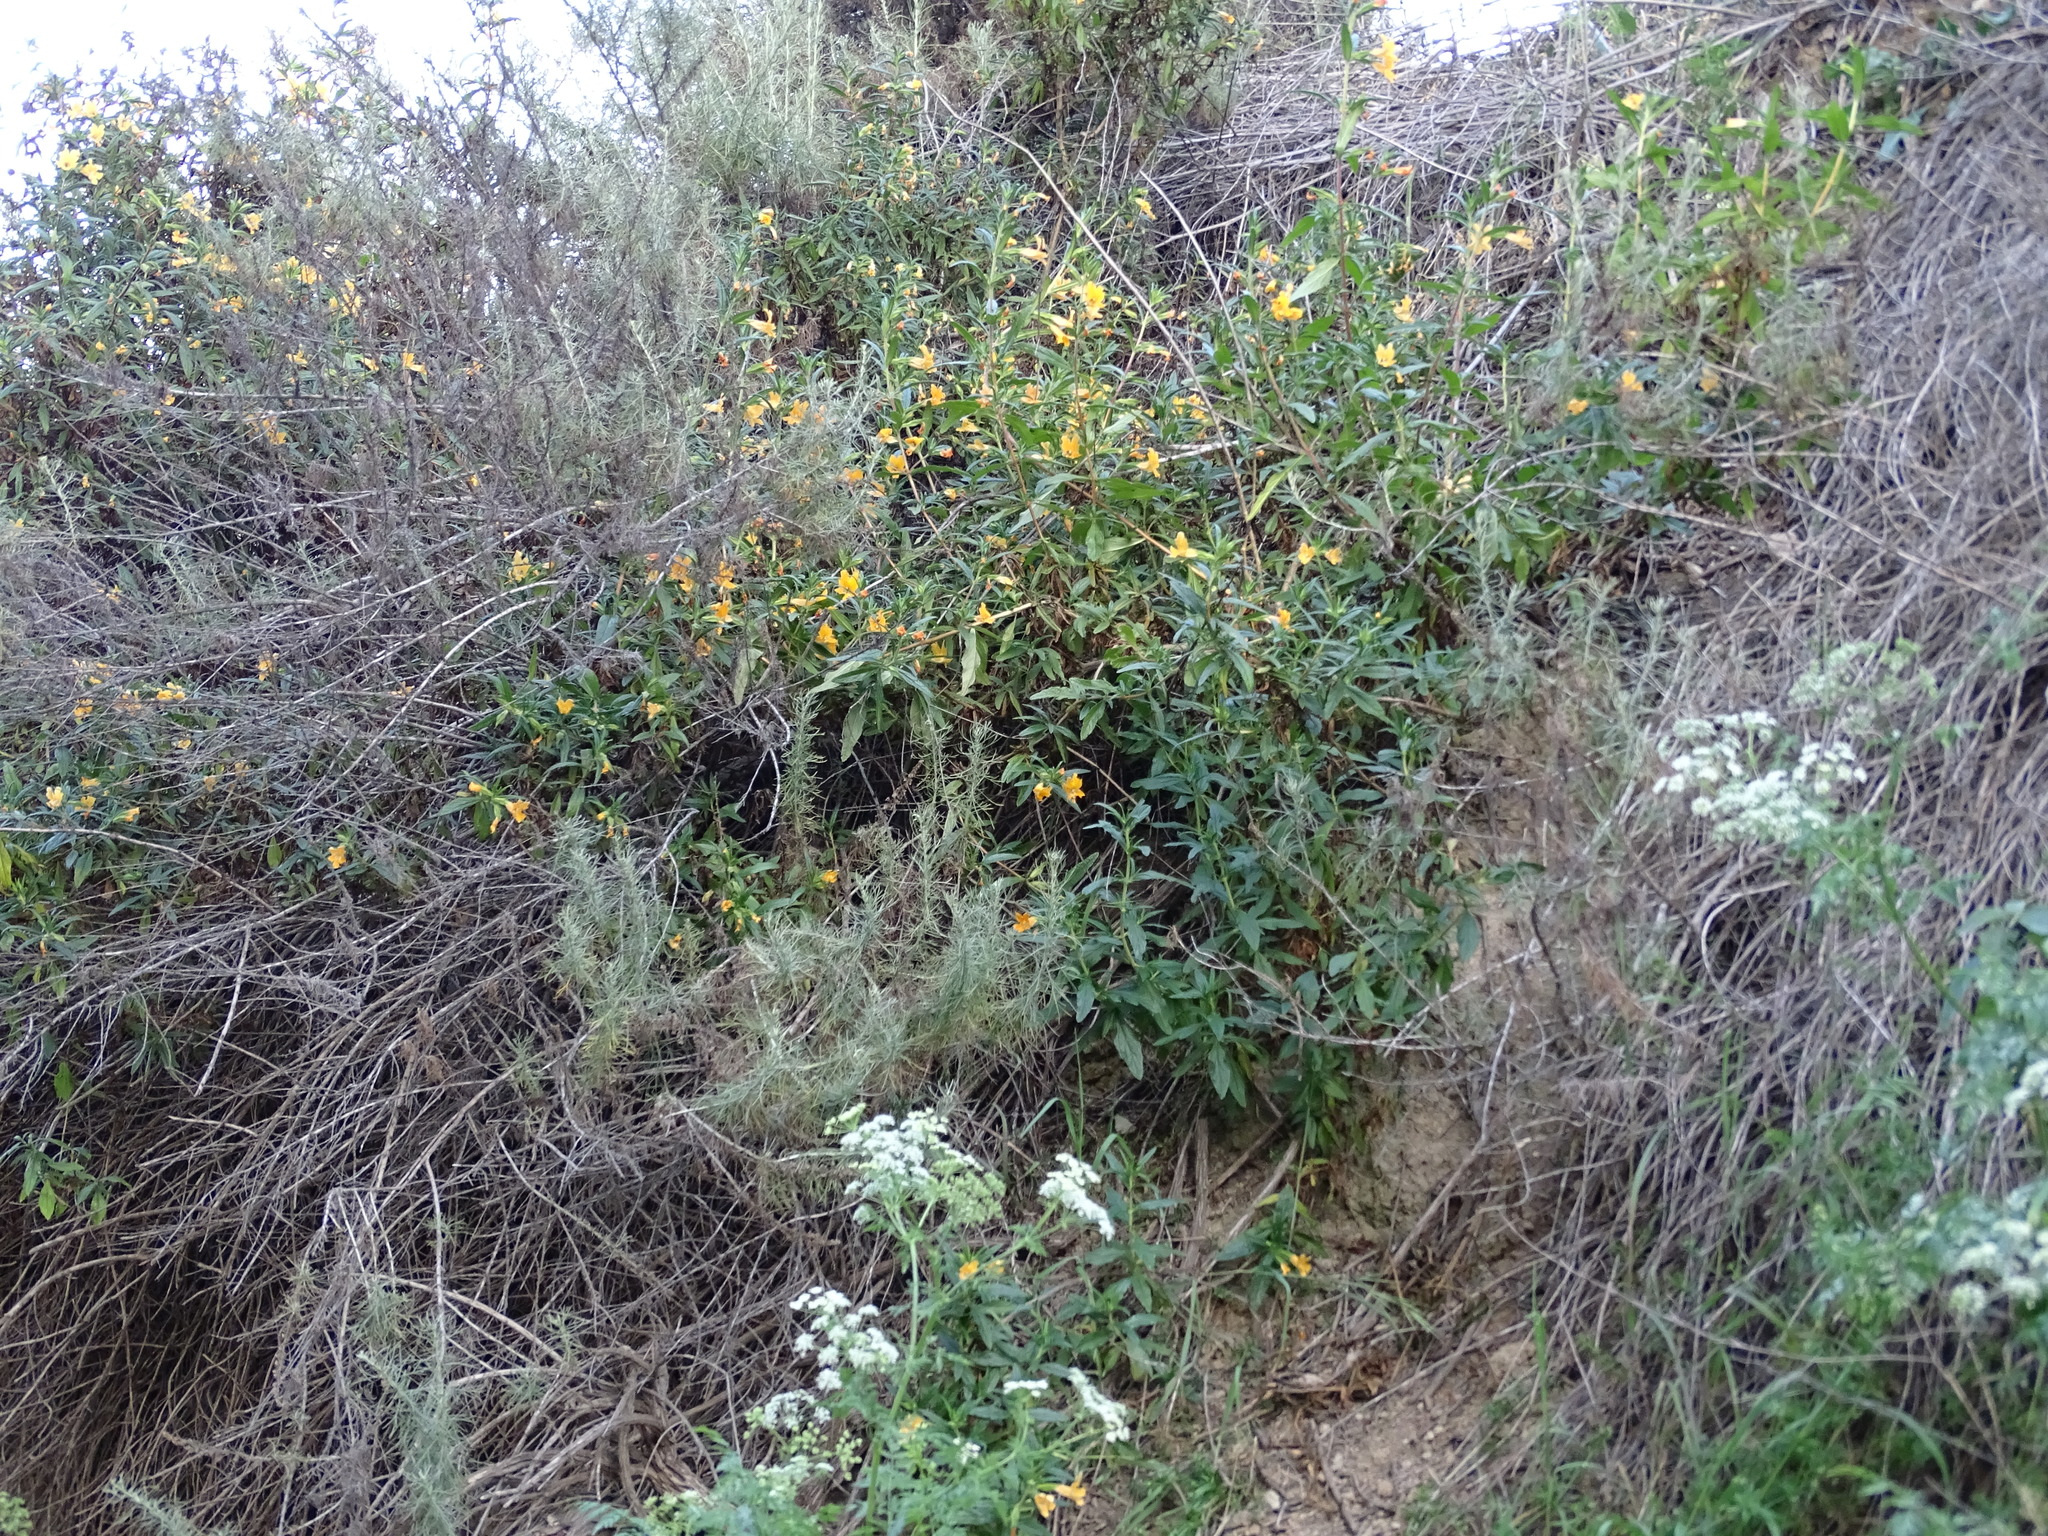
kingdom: Plantae
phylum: Tracheophyta
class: Magnoliopsida
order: Lamiales
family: Phrymaceae
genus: Diplacus
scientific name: Diplacus longiflorus
